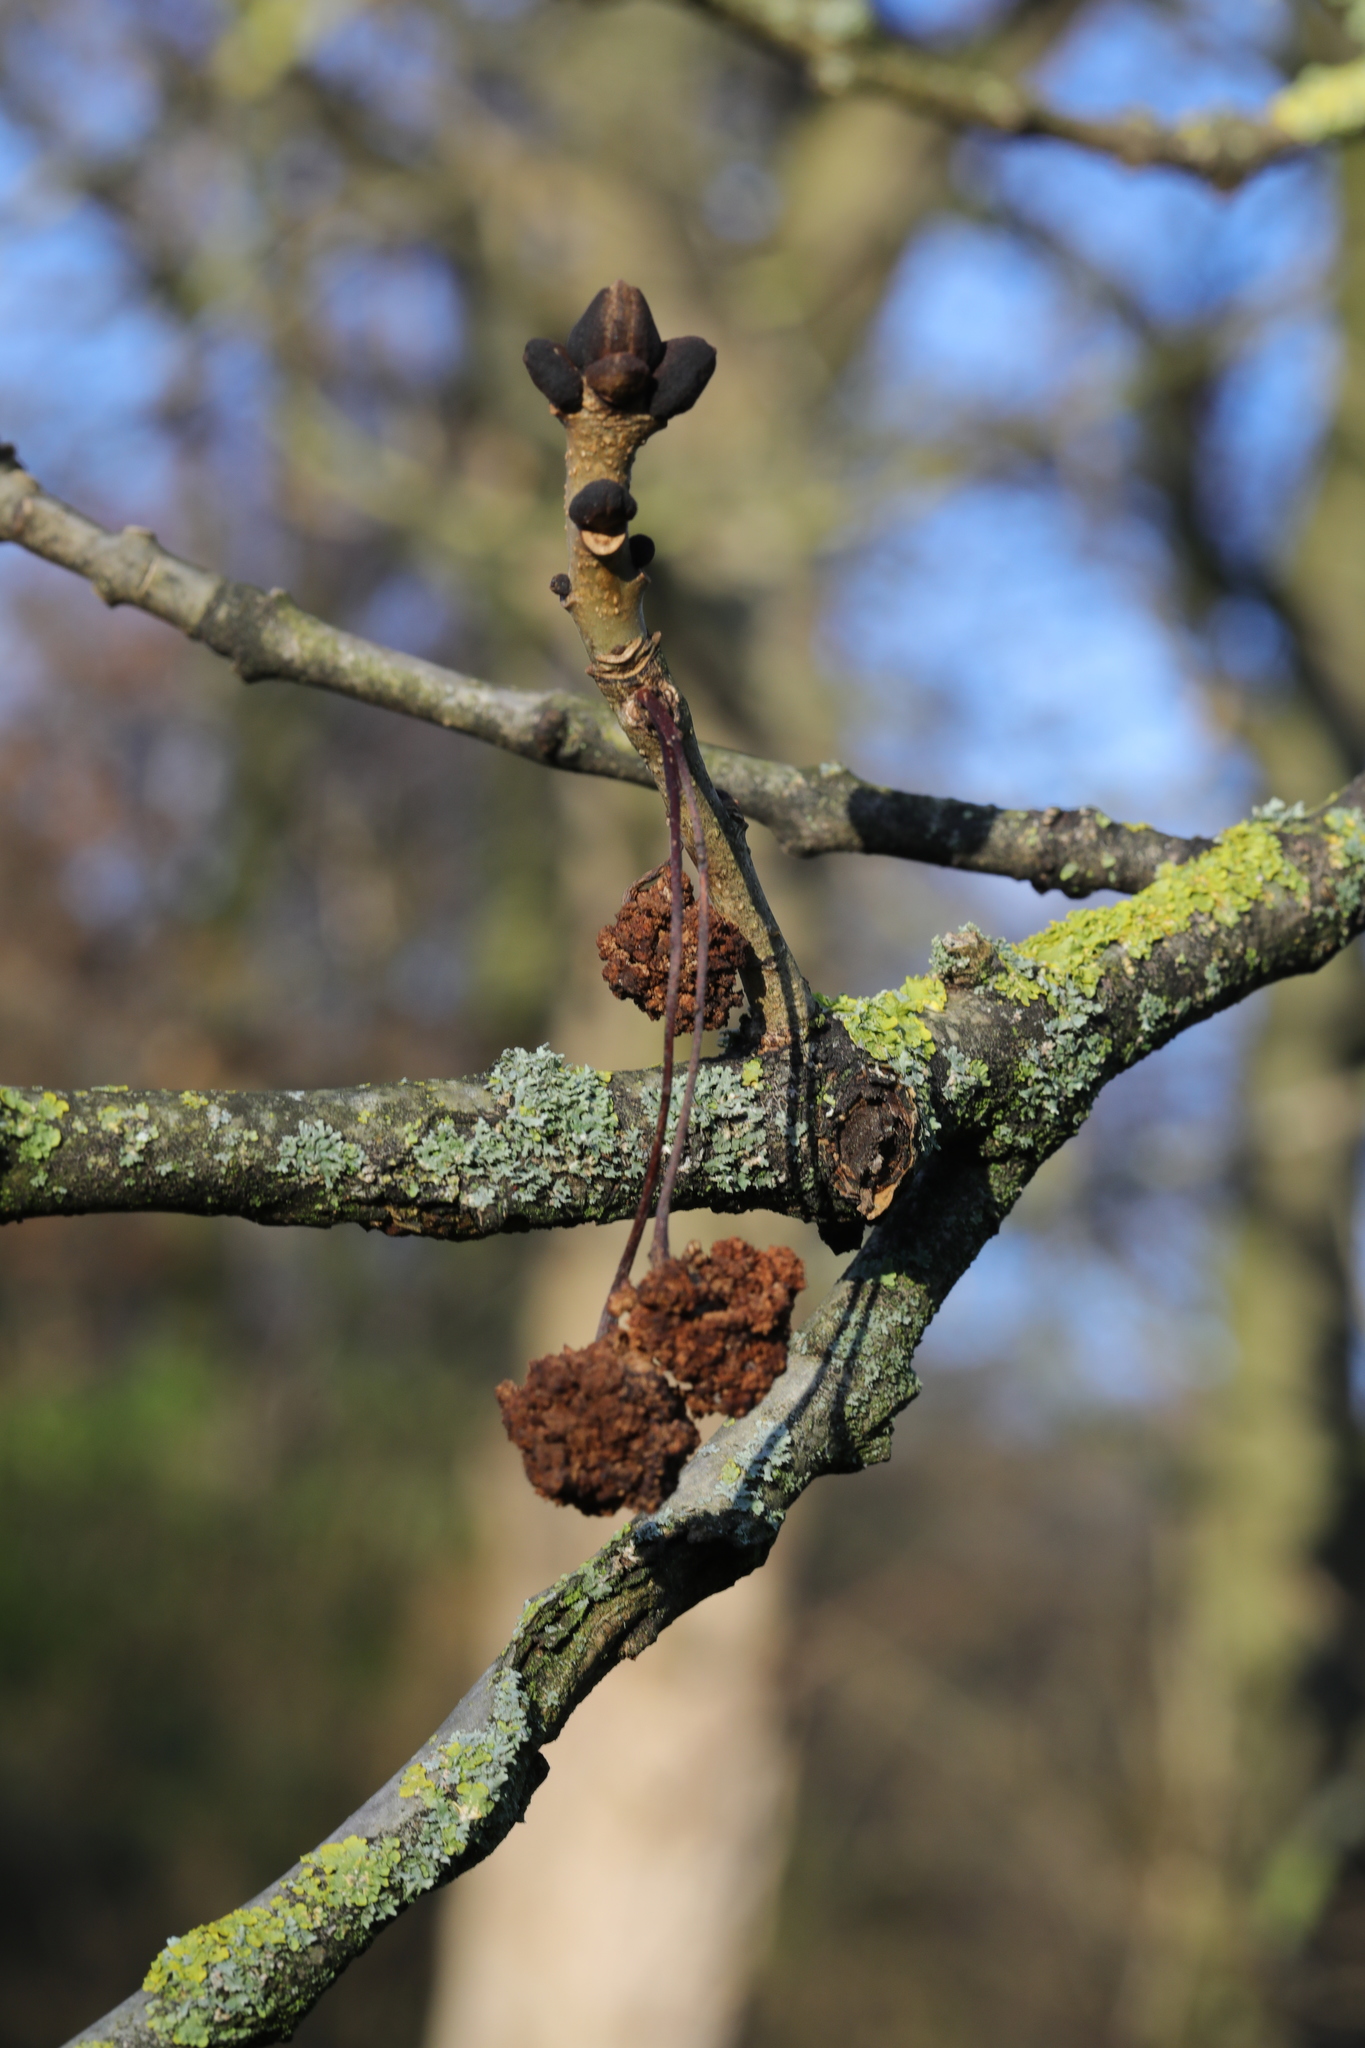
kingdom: Animalia
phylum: Arthropoda
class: Arachnida
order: Trombidiformes
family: Eriophyidae
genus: Aceria
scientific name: Aceria fraxinivora
